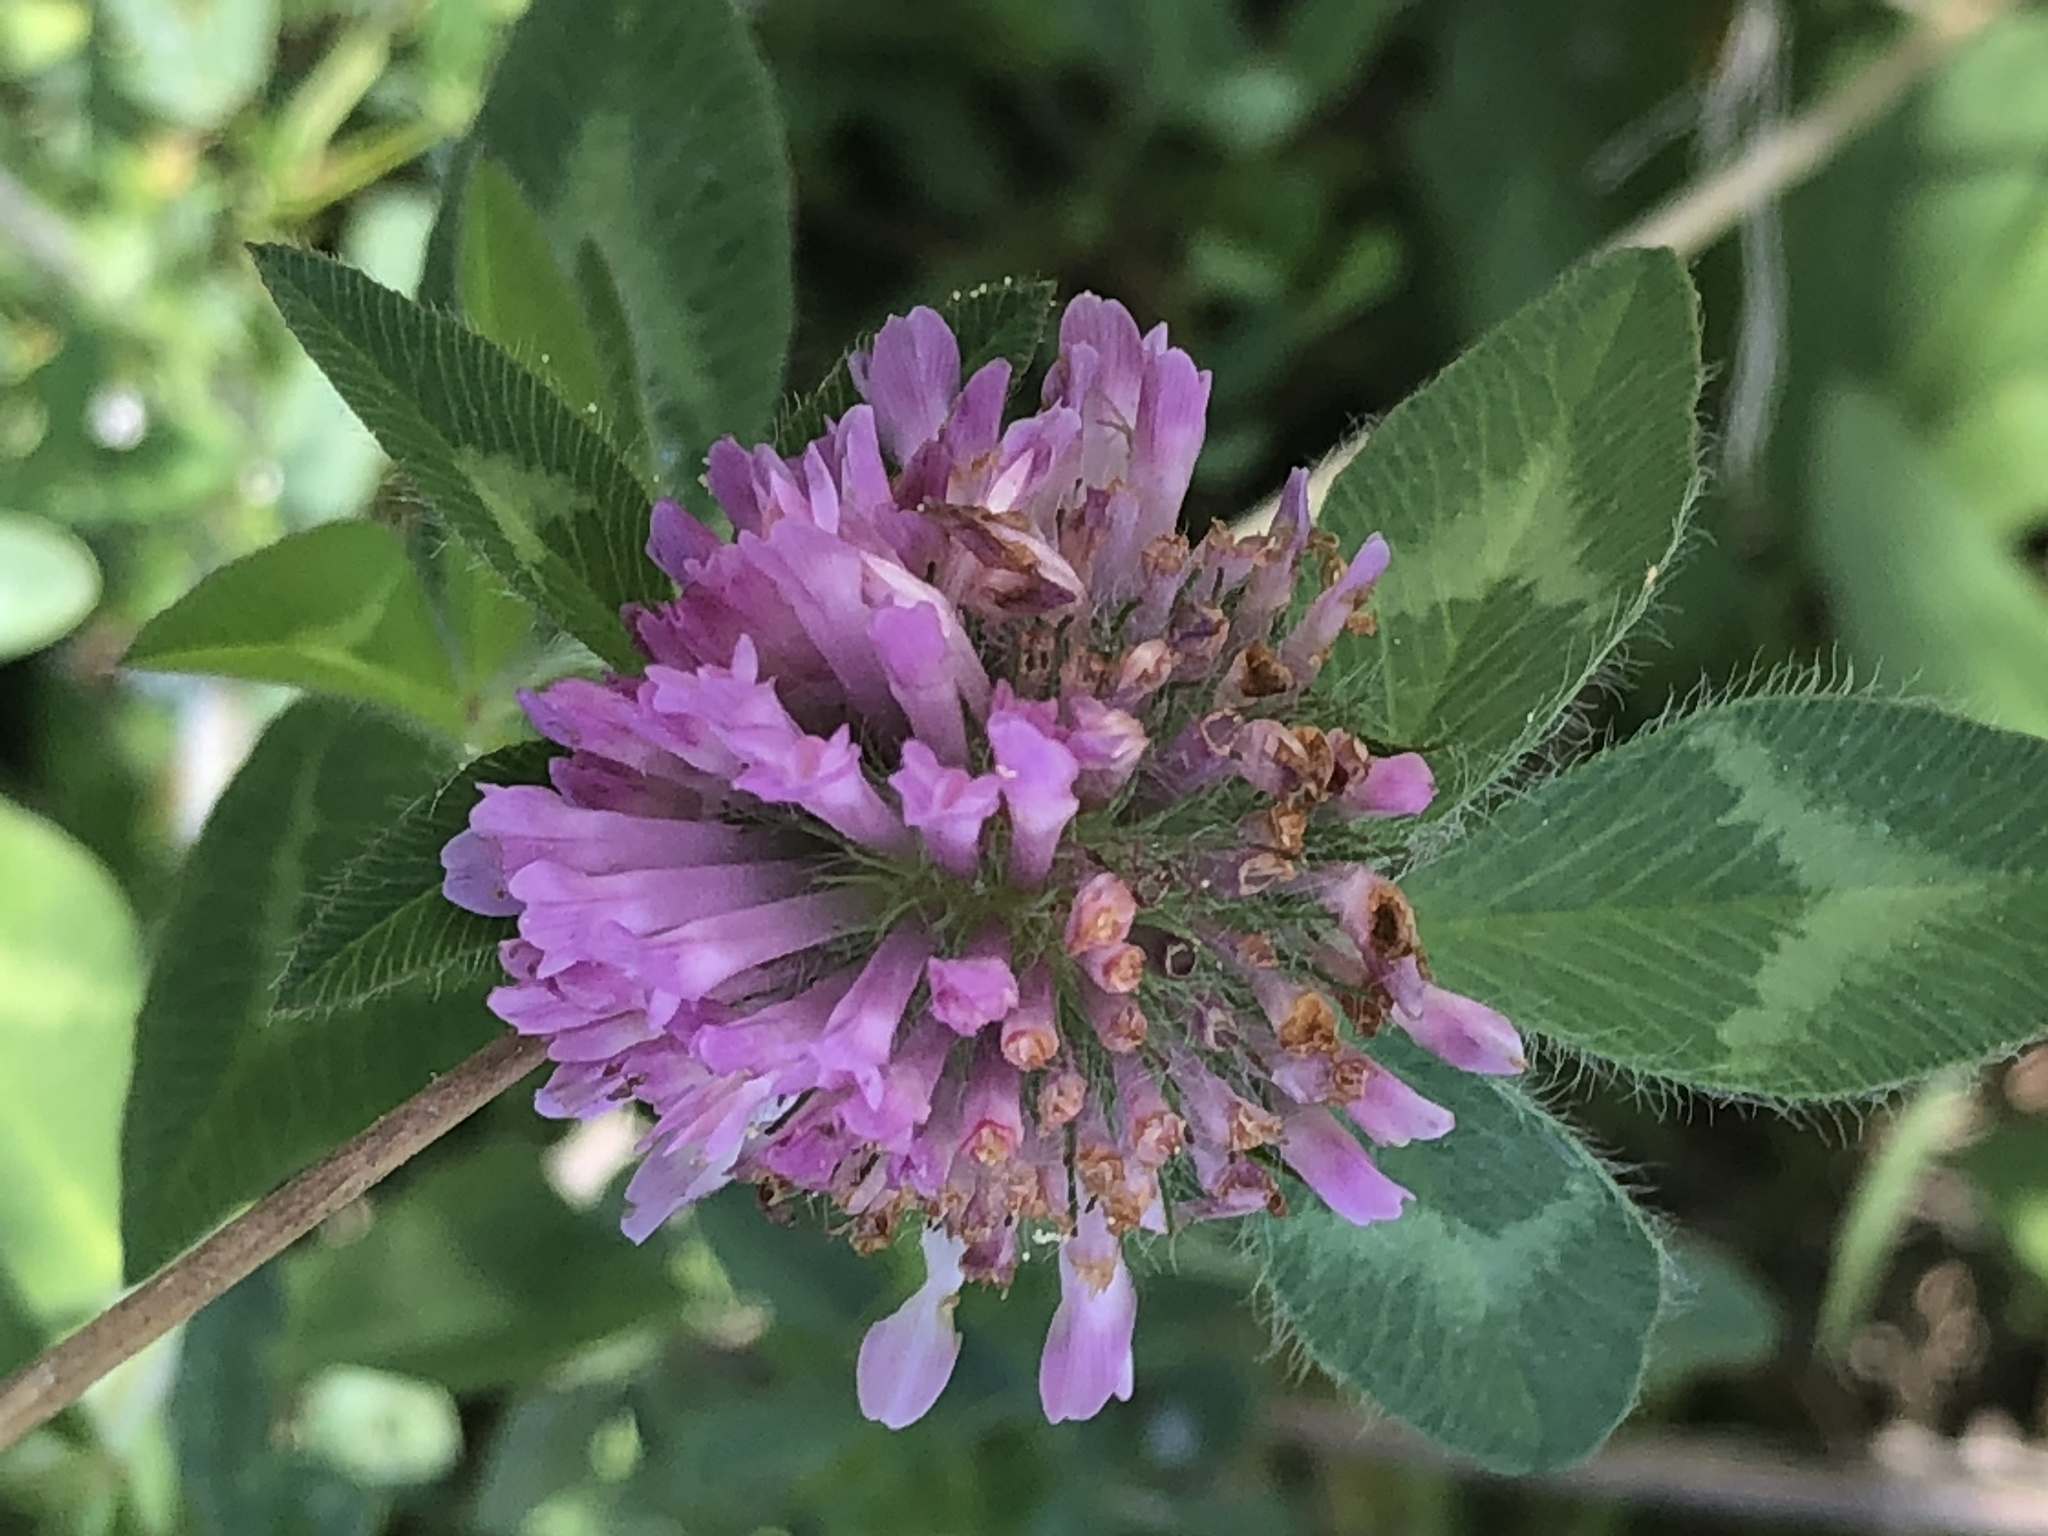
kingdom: Plantae
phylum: Tracheophyta
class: Magnoliopsida
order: Fabales
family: Fabaceae
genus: Trifolium
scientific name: Trifolium pratense
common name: Red clover
